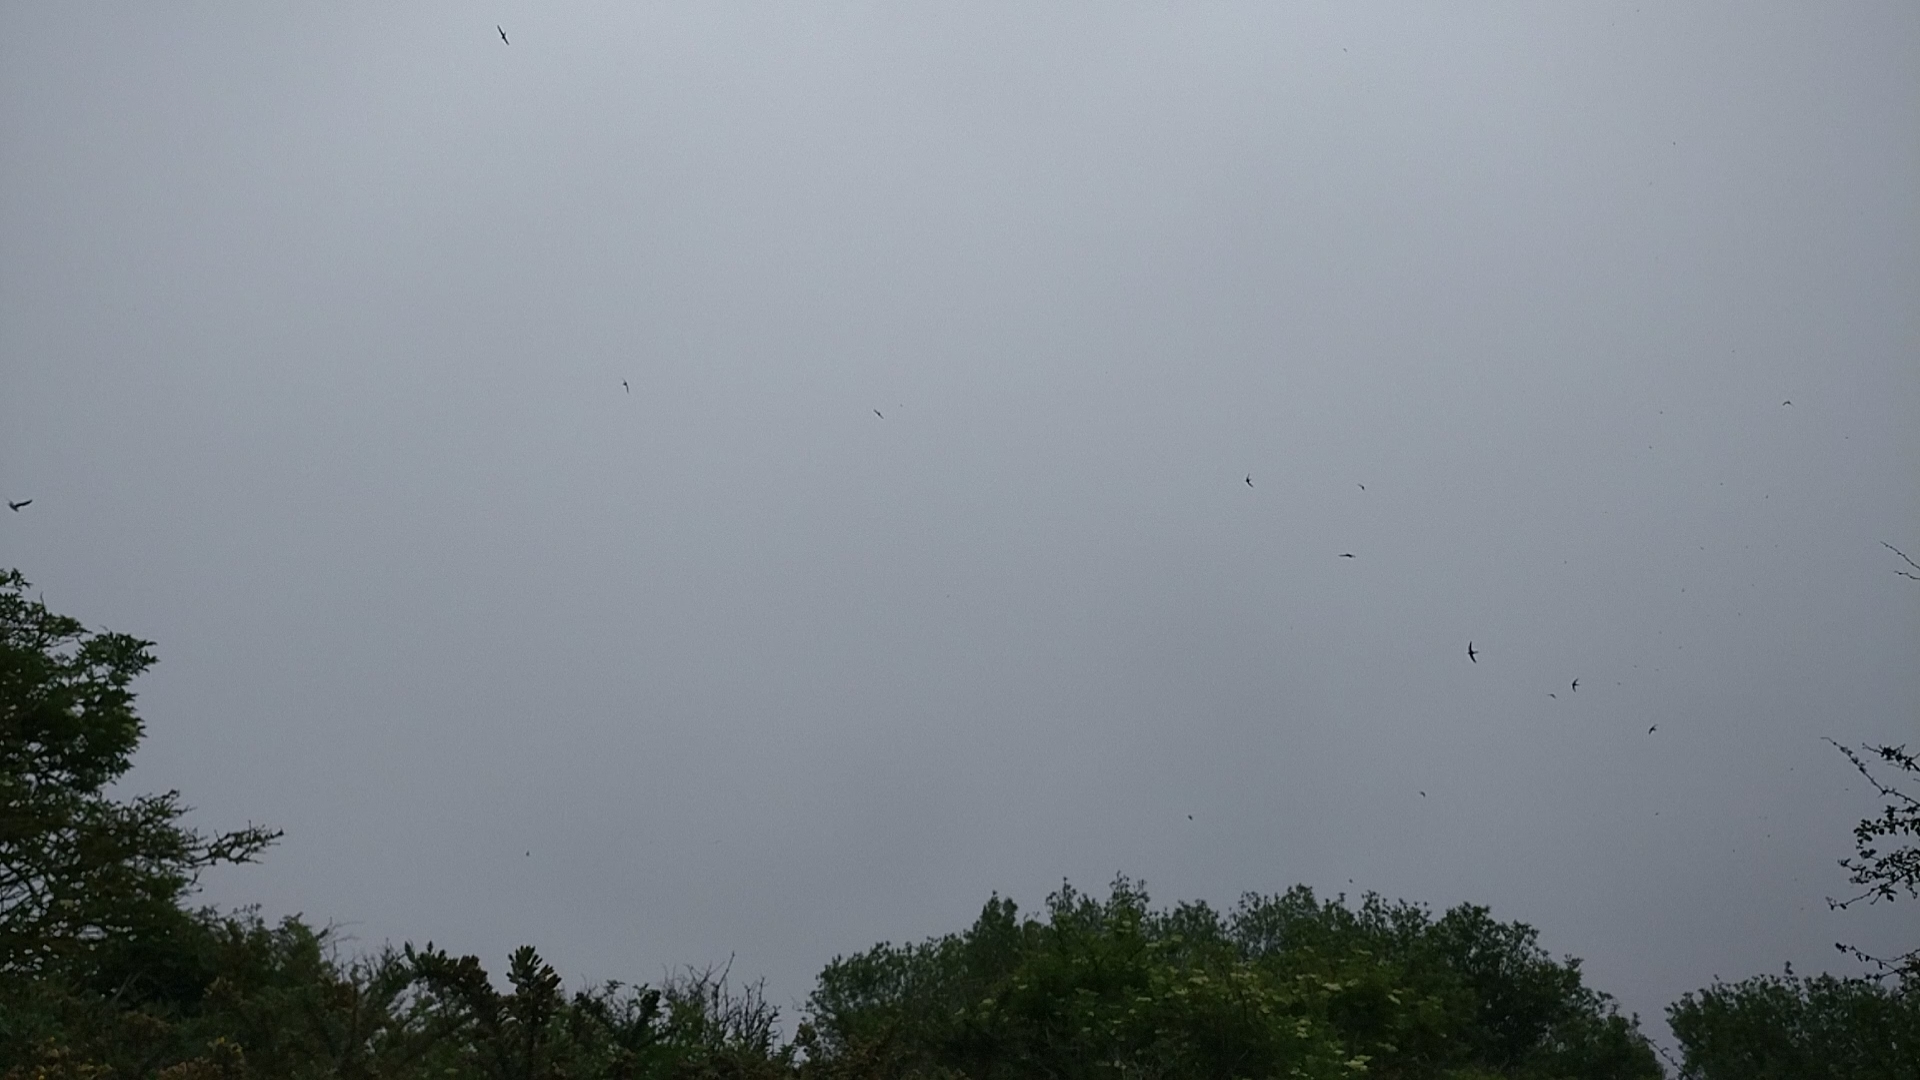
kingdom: Animalia
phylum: Chordata
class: Aves
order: Apodiformes
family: Apodidae
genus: Apus
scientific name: Apus apus
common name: Common swift
